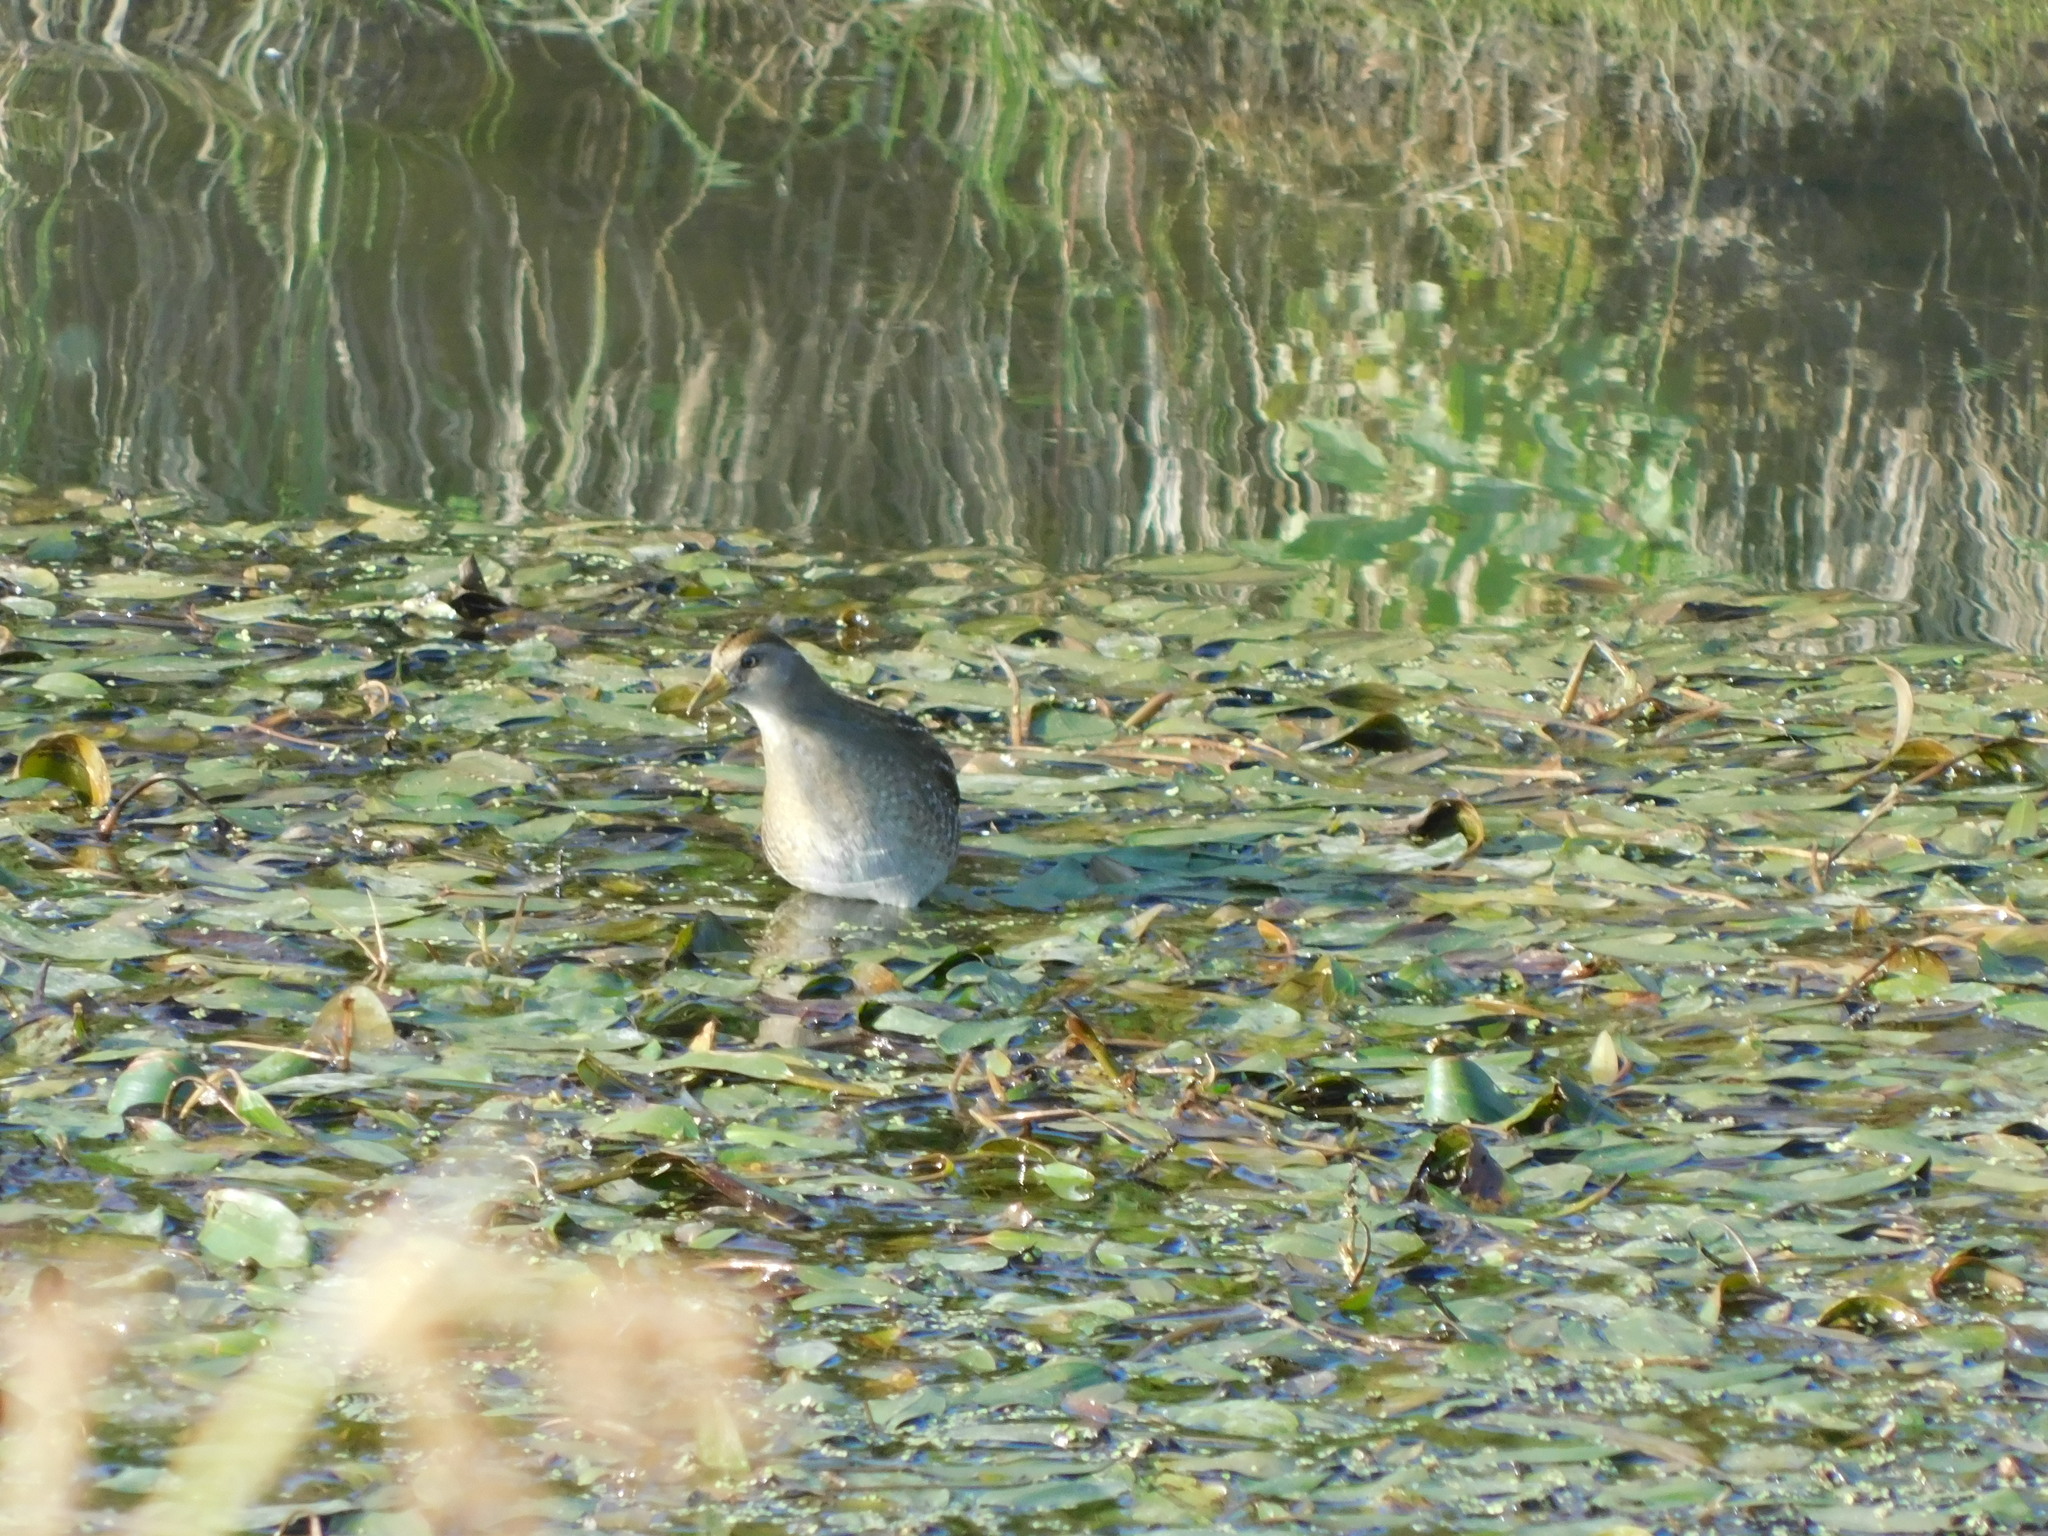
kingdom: Animalia
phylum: Chordata
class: Aves
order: Gruiformes
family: Rallidae
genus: Porzana
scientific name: Porzana carolina
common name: Sora
